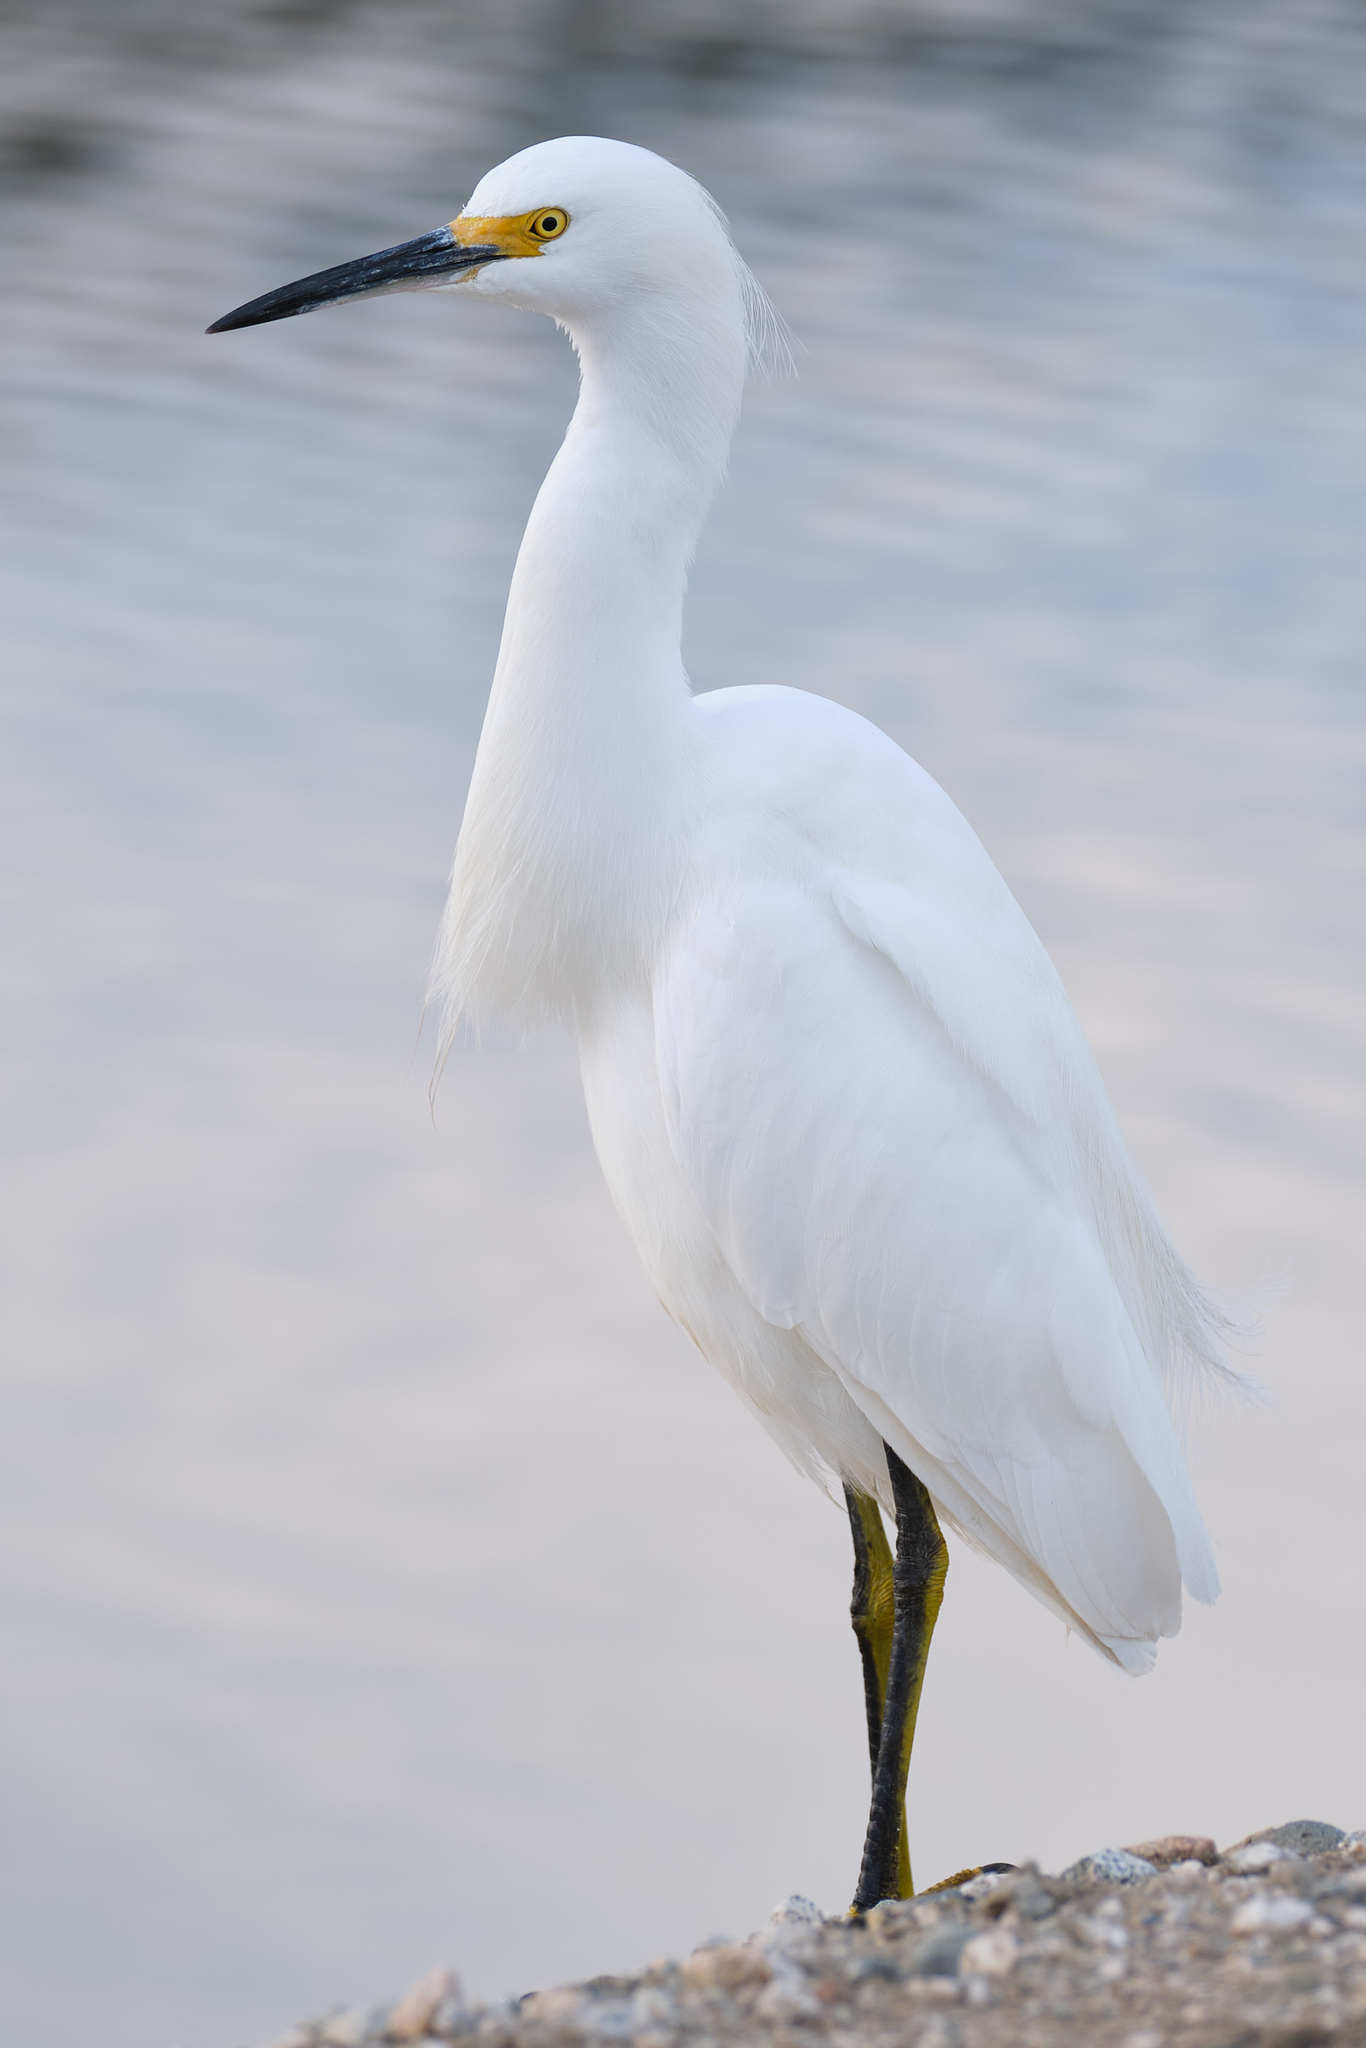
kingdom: Animalia
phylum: Chordata
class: Aves
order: Pelecaniformes
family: Ardeidae
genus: Egretta
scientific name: Egretta thula
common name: Snowy egret
